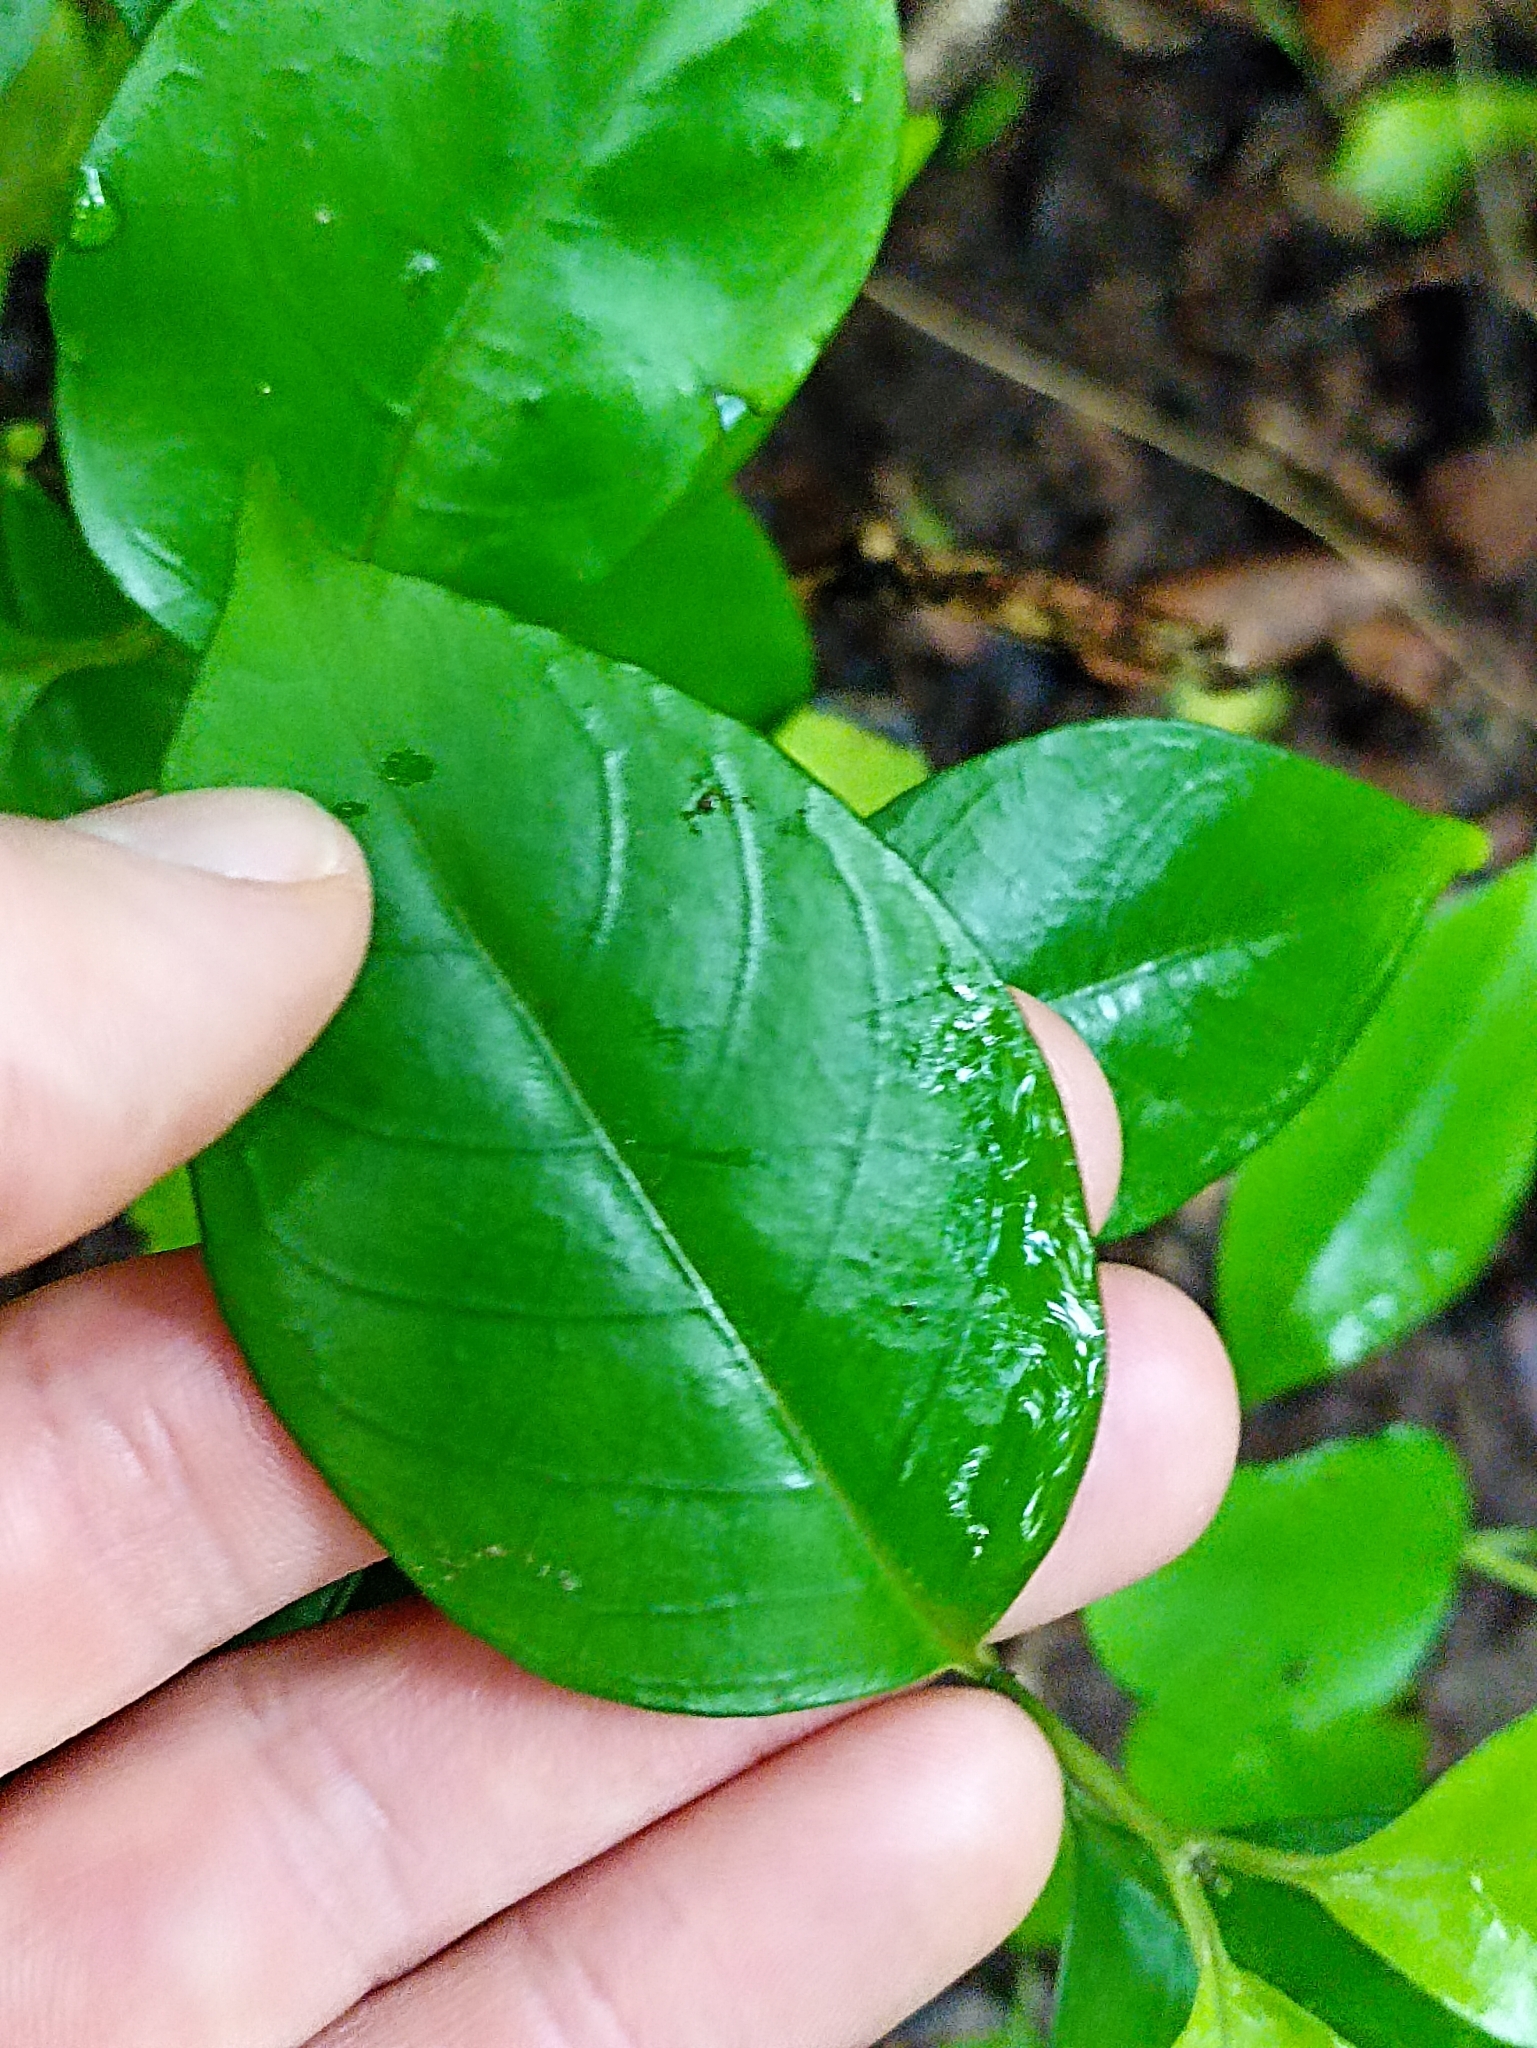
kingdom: Plantae
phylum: Tracheophyta
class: Magnoliopsida
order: Gentianales
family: Loganiaceae
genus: Geniostoma
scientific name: Geniostoma ligustrifolium
